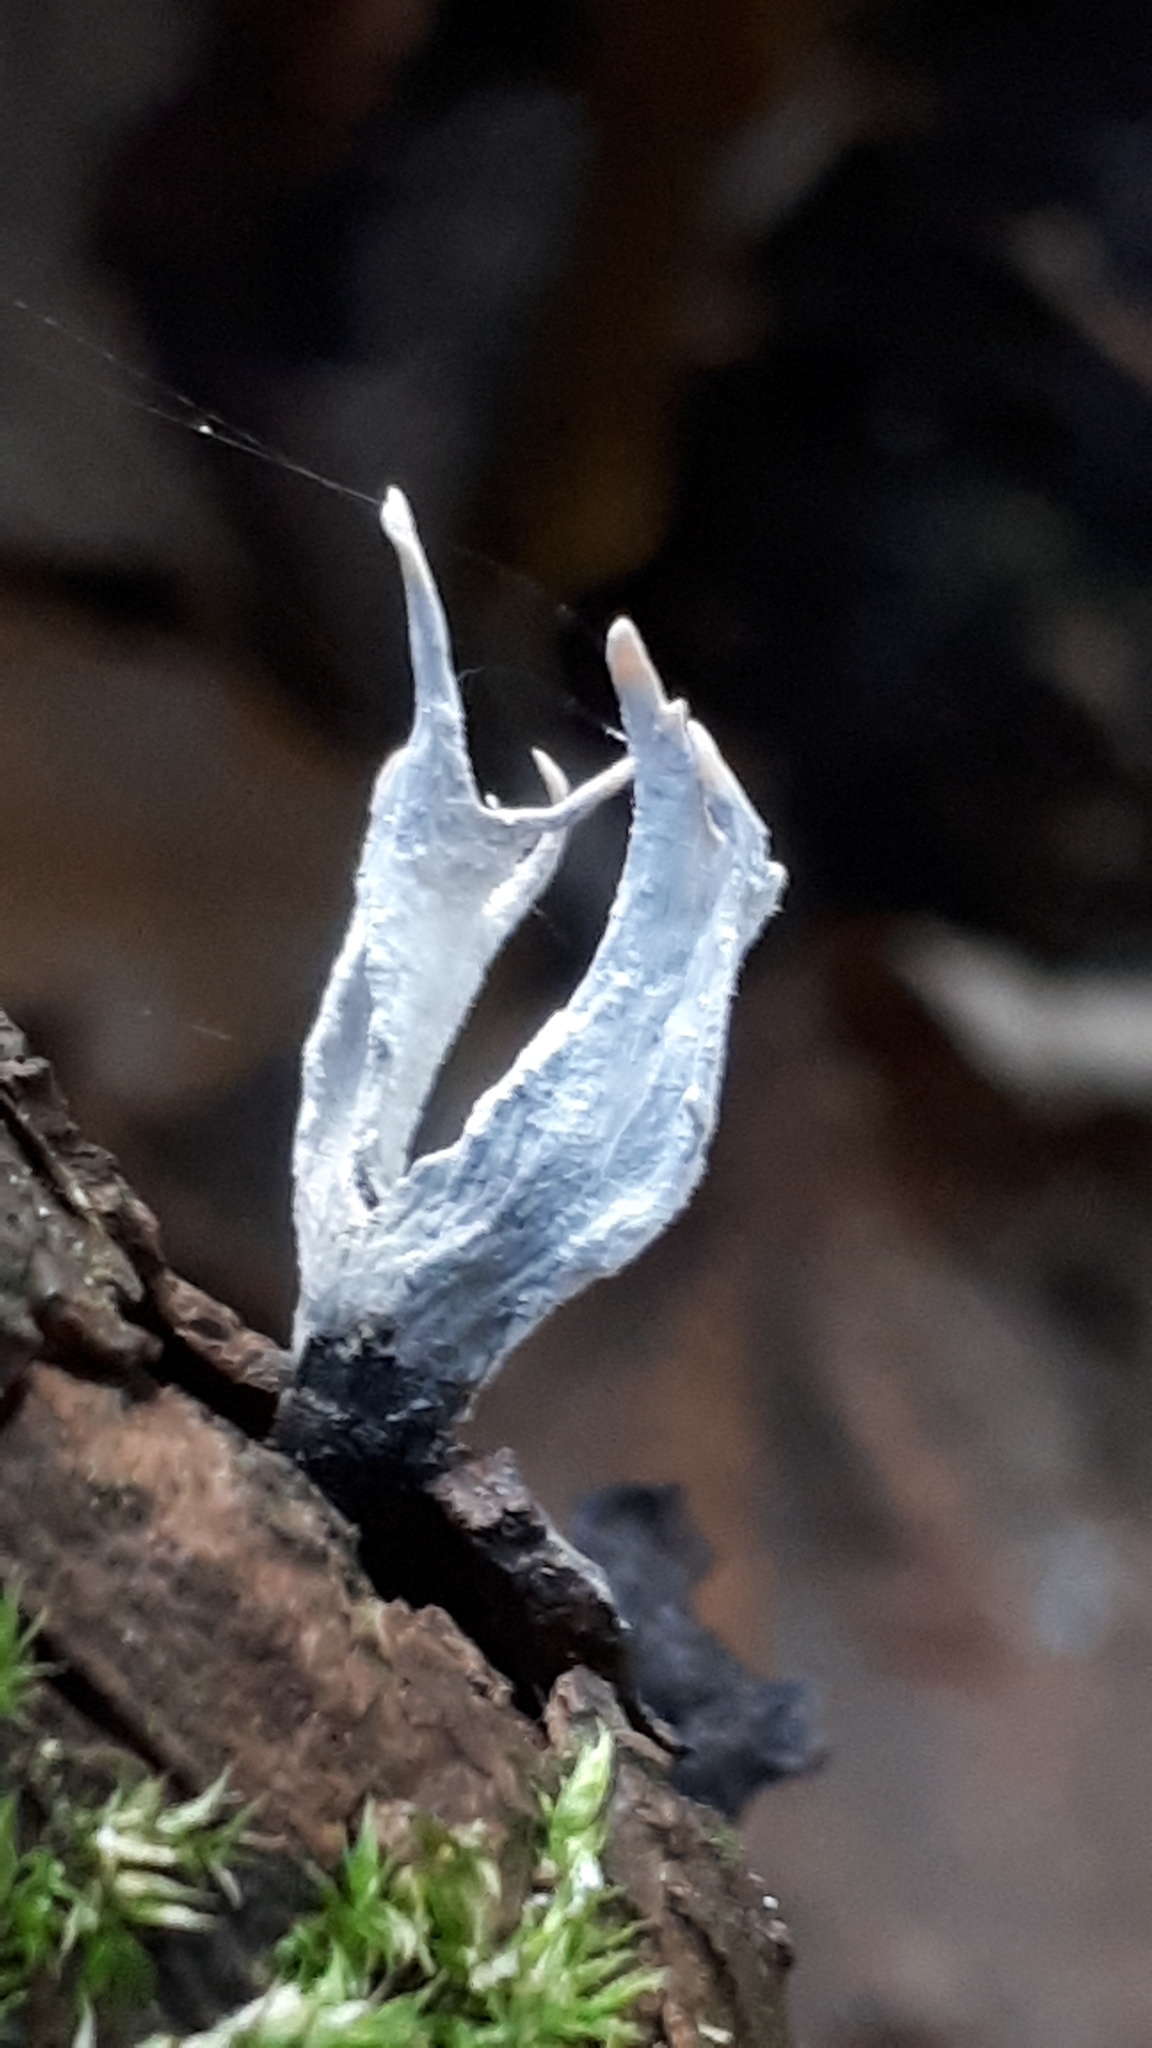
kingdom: Fungi
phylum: Ascomycota
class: Sordariomycetes
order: Xylariales
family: Xylariaceae
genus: Xylaria
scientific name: Xylaria hypoxylon
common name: Candle-snuff fungus
